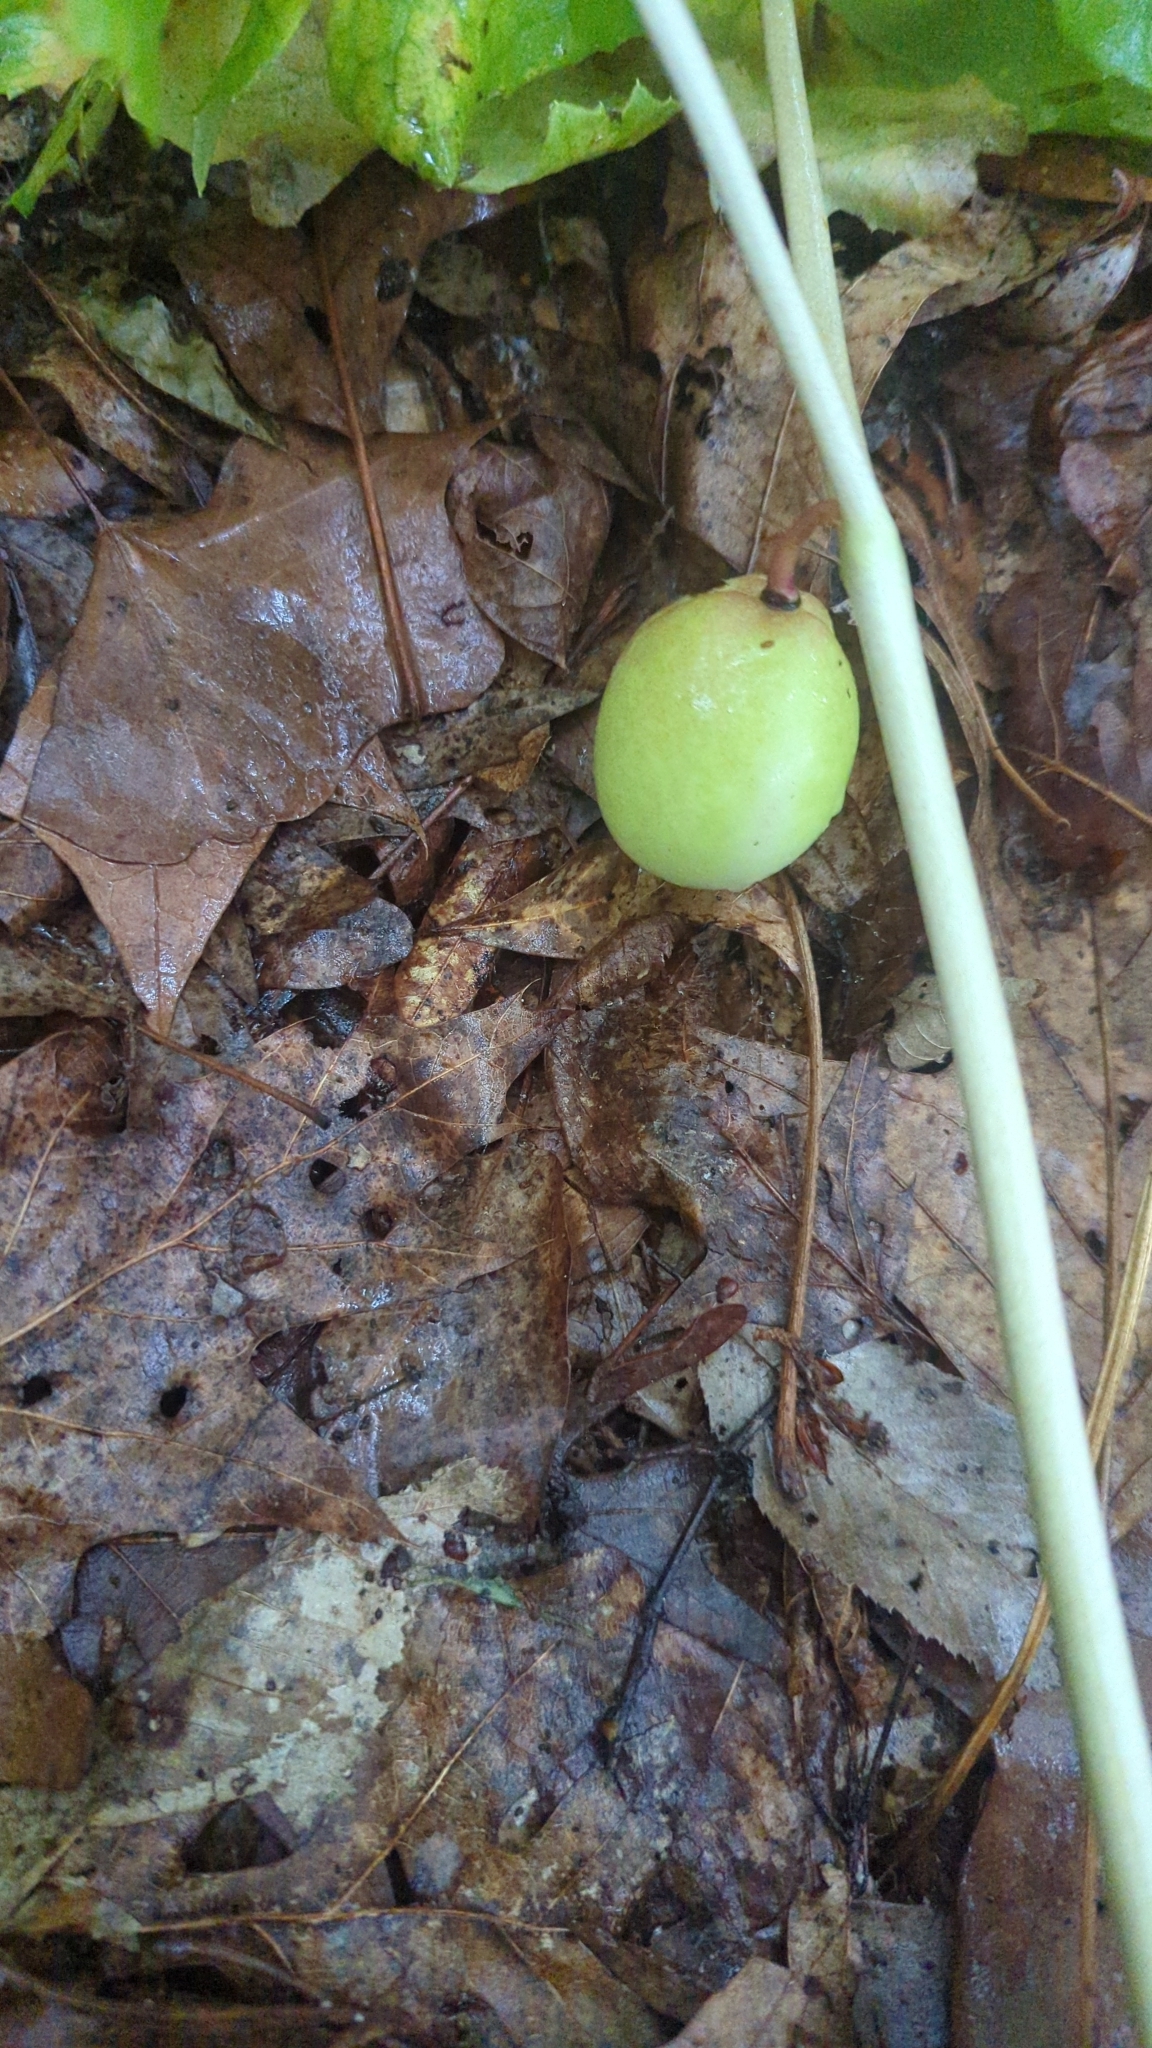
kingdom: Plantae
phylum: Tracheophyta
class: Magnoliopsida
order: Ranunculales
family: Berberidaceae
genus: Podophyllum
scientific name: Podophyllum peltatum
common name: Wild mandrake
